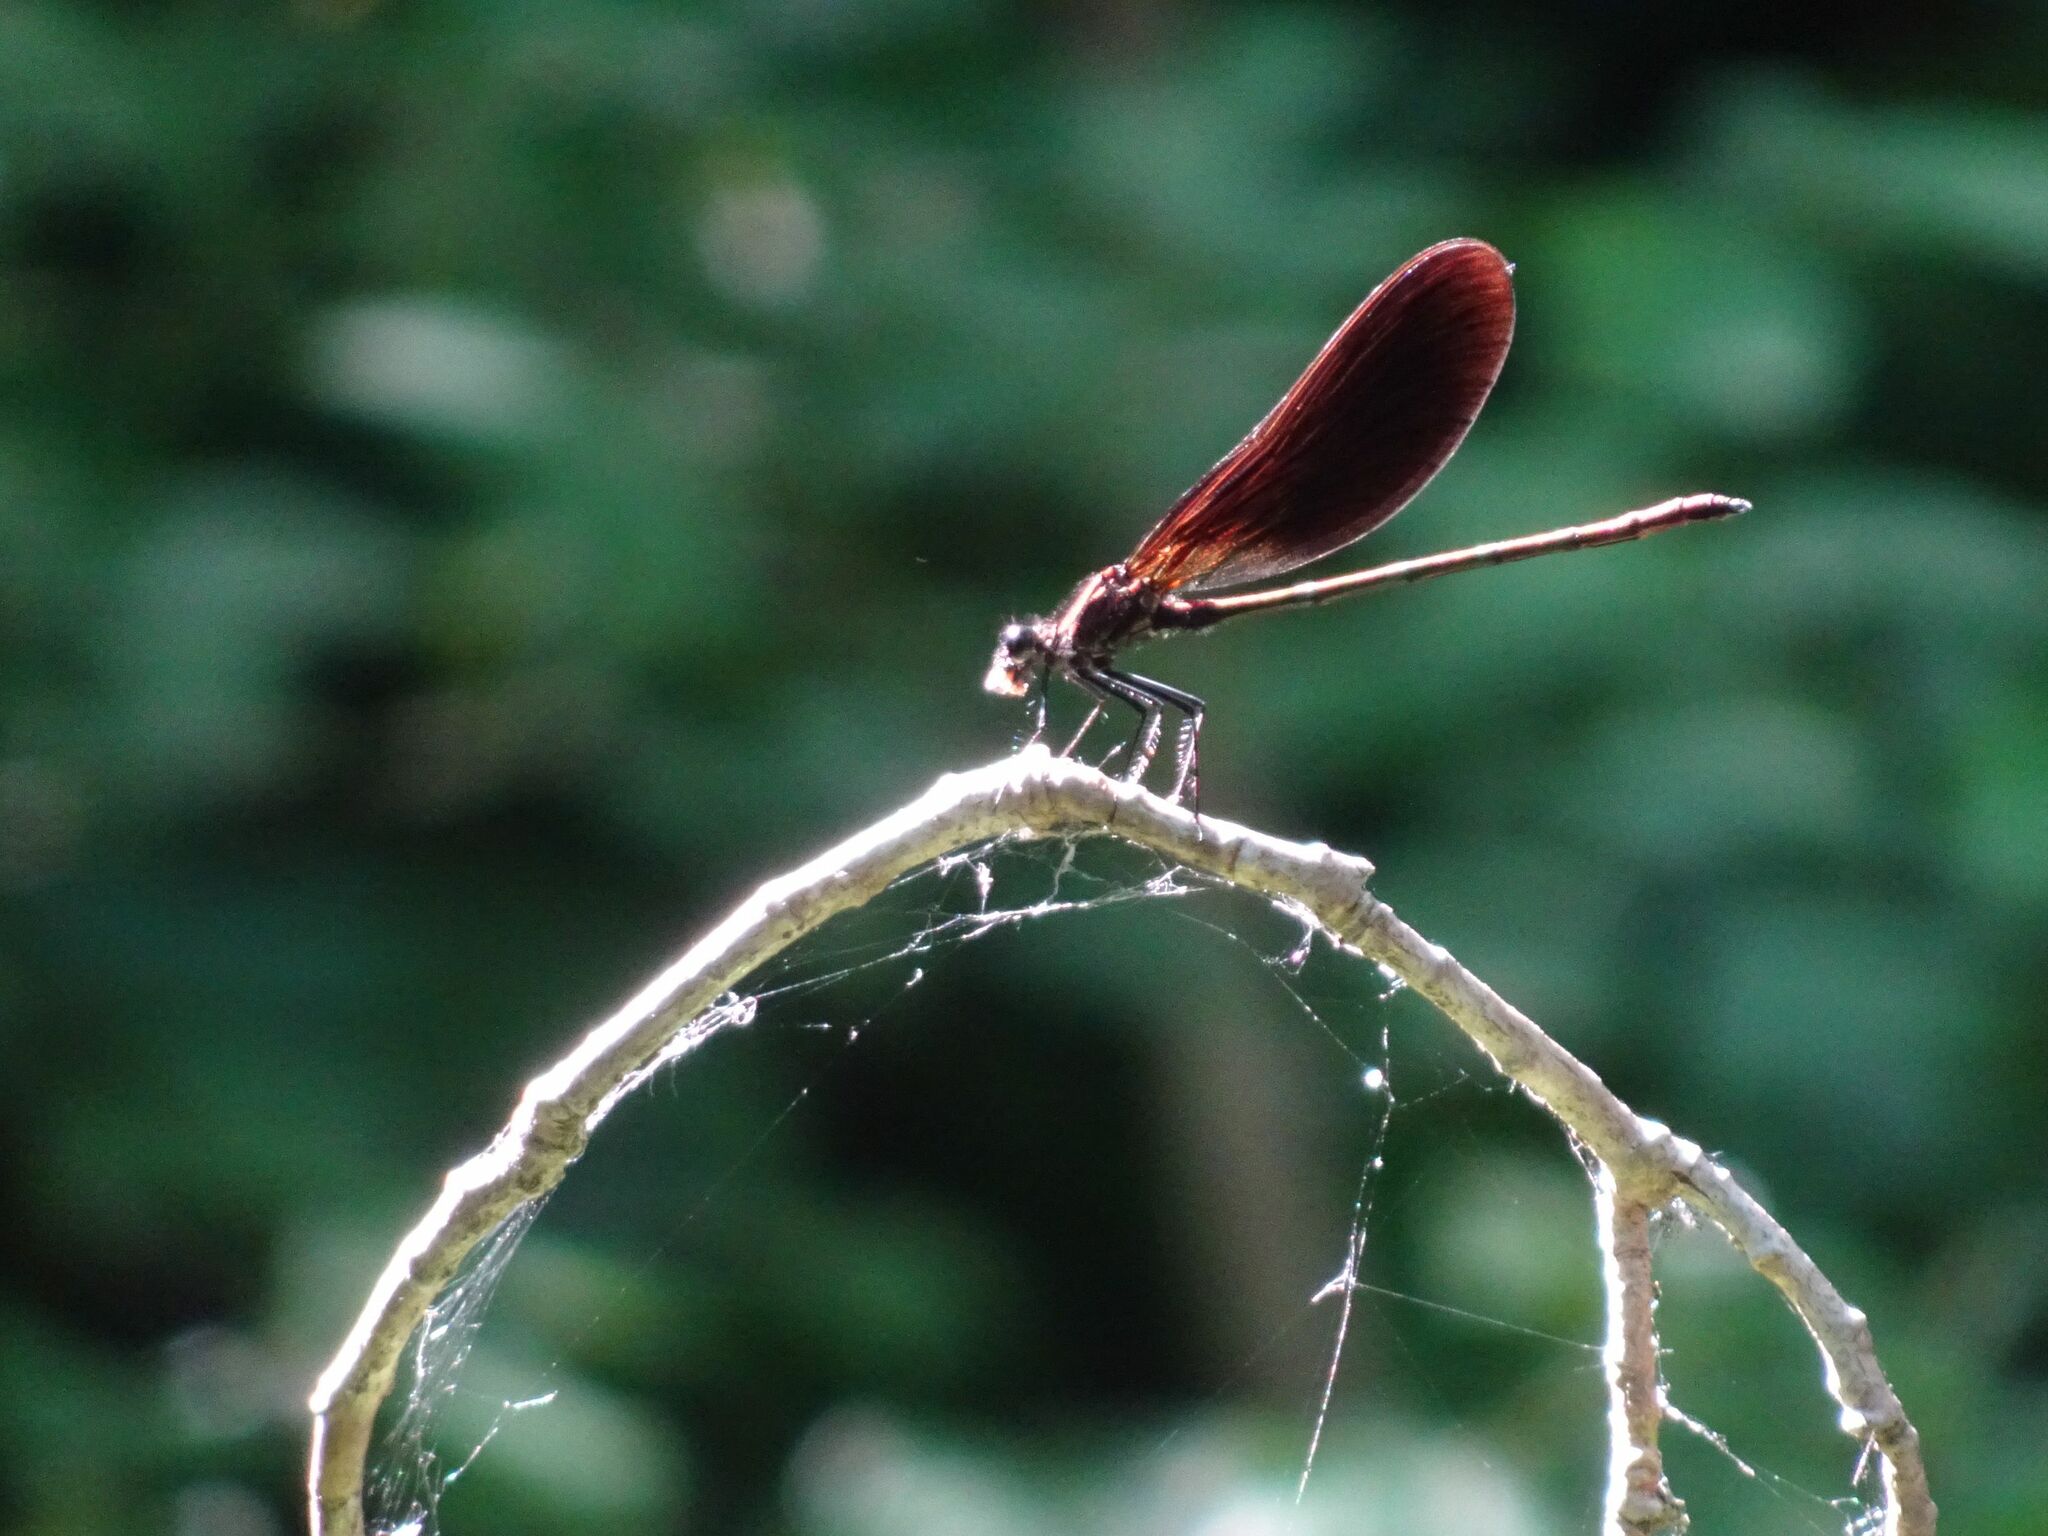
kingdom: Animalia
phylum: Arthropoda
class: Insecta
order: Odonata
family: Calopterygidae
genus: Calopteryx
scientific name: Calopteryx haemorrhoidalis
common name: Copper demoiselle
